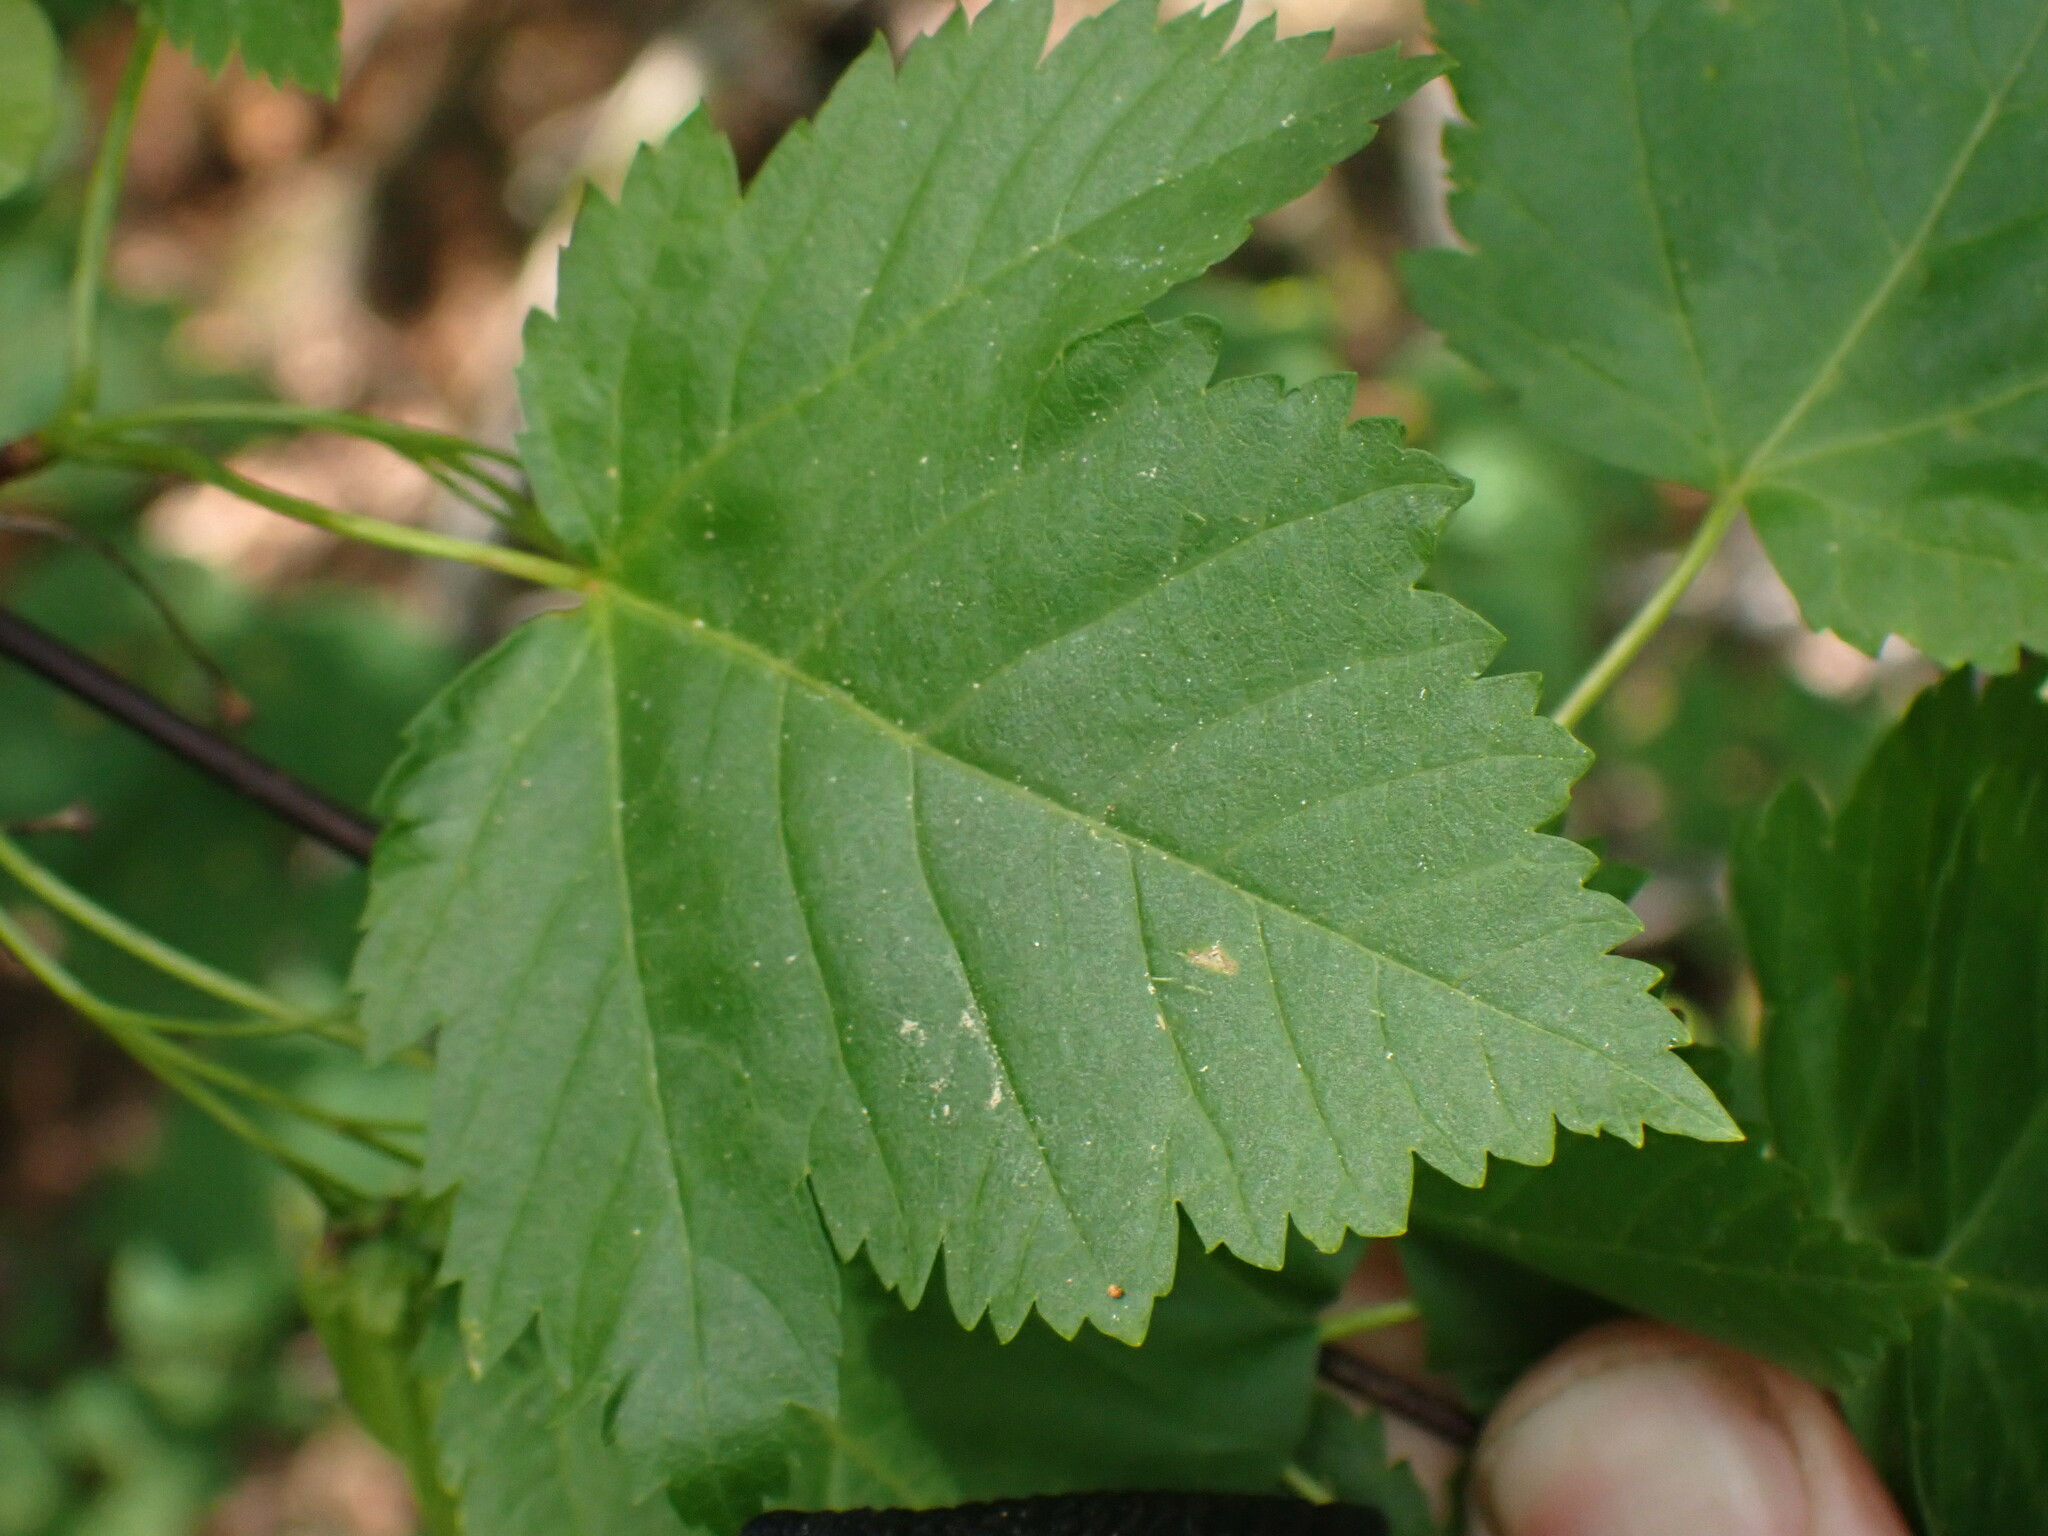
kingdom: Plantae
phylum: Tracheophyta
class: Magnoliopsida
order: Sapindales
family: Sapindaceae
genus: Acer
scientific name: Acer glabrum
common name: Rocky mountain maple
